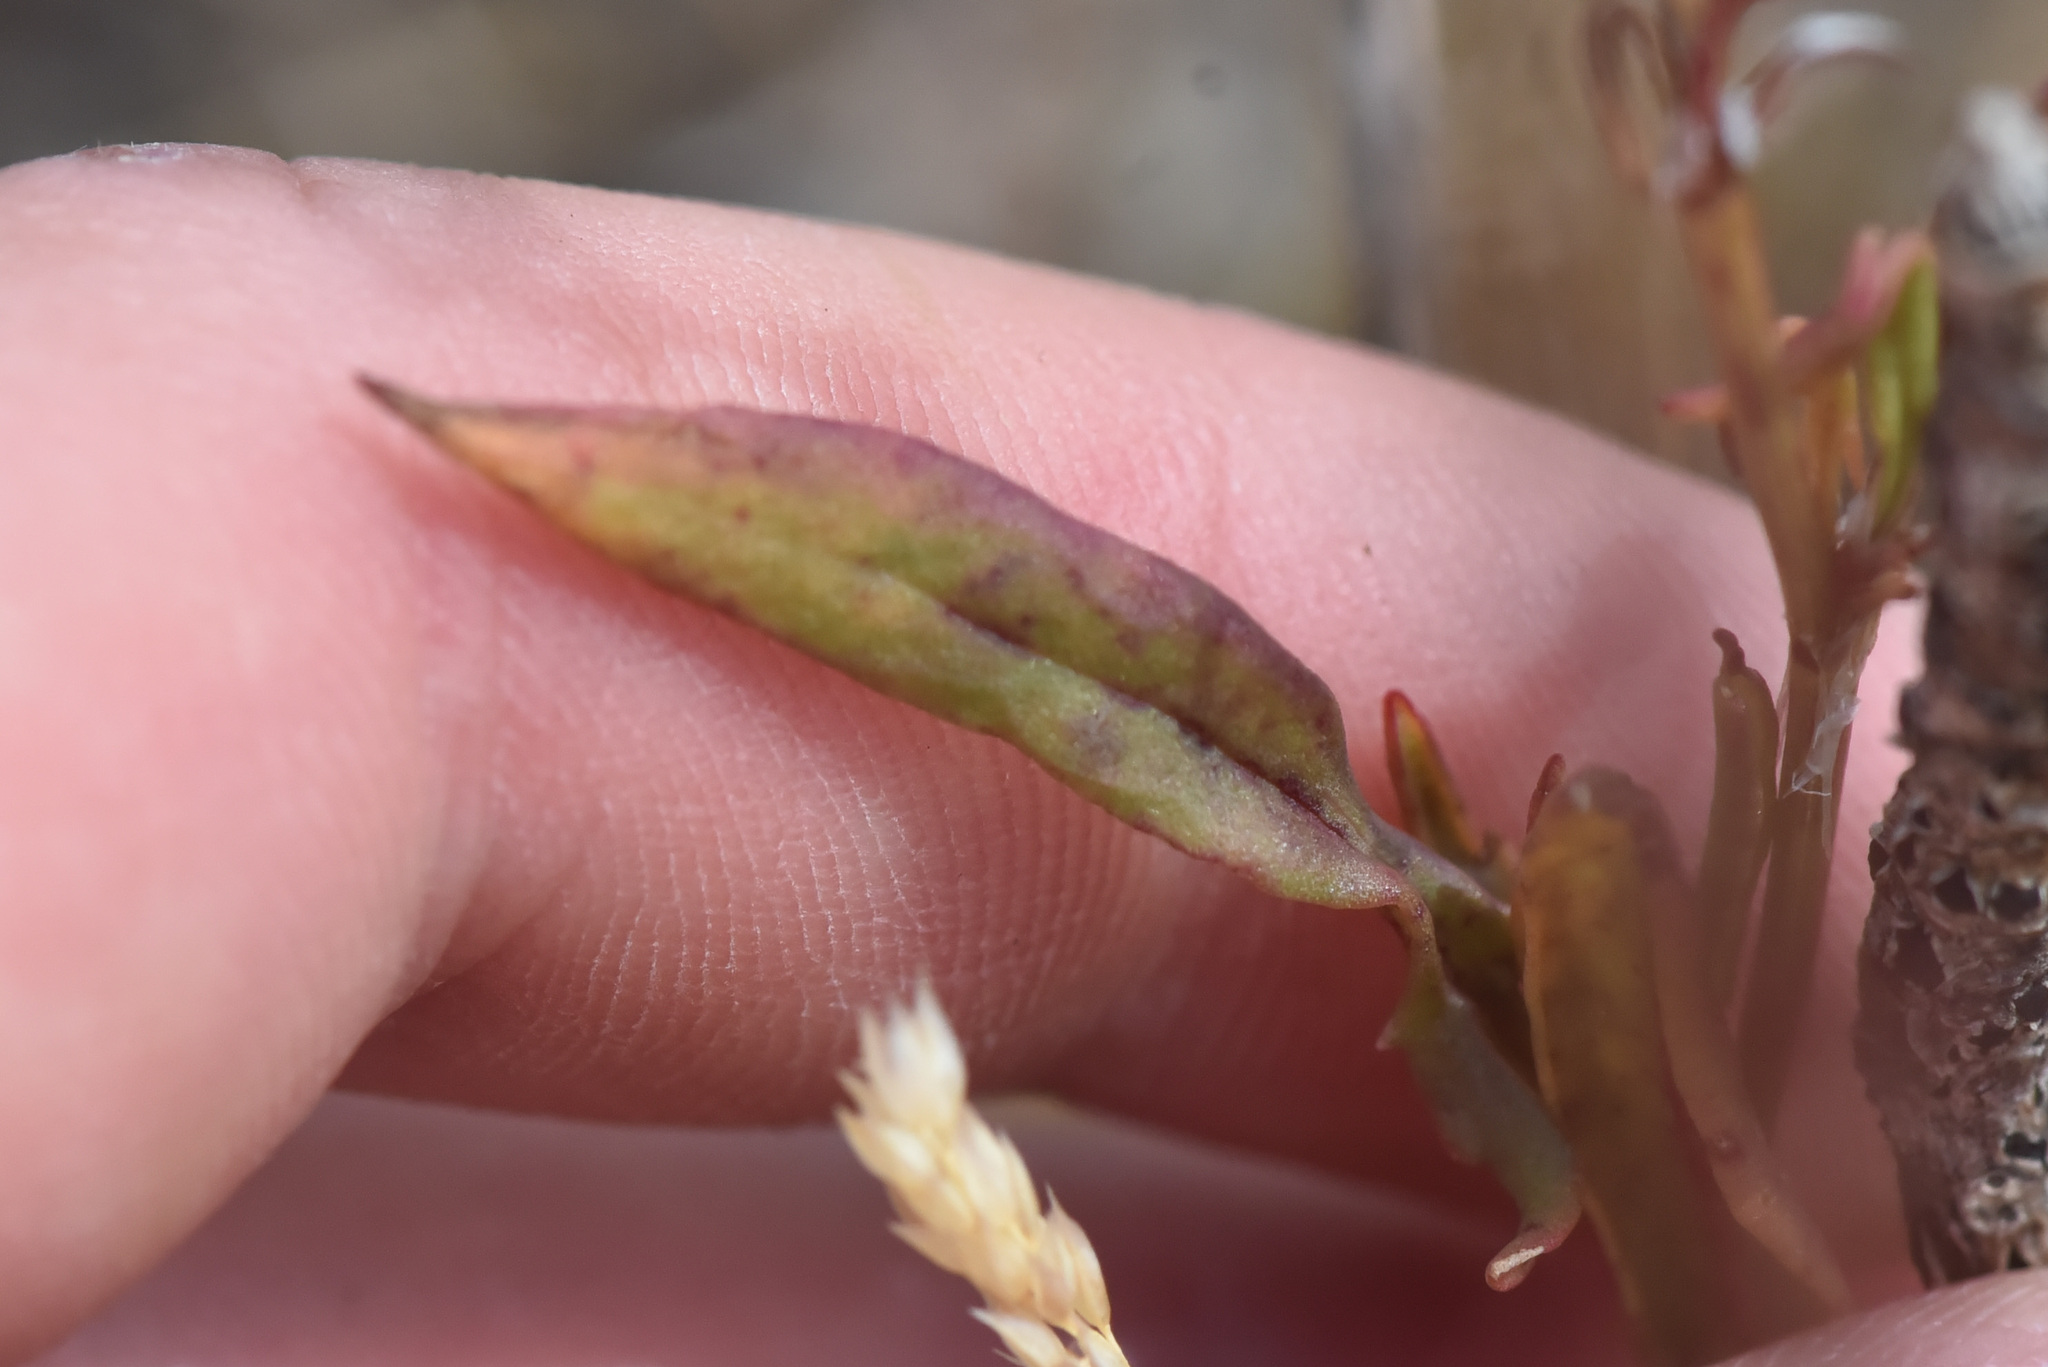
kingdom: Plantae
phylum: Tracheophyta
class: Magnoliopsida
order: Caryophyllales
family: Polygonaceae
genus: Rumex
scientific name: Rumex acetosella
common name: Common sheep sorrel
